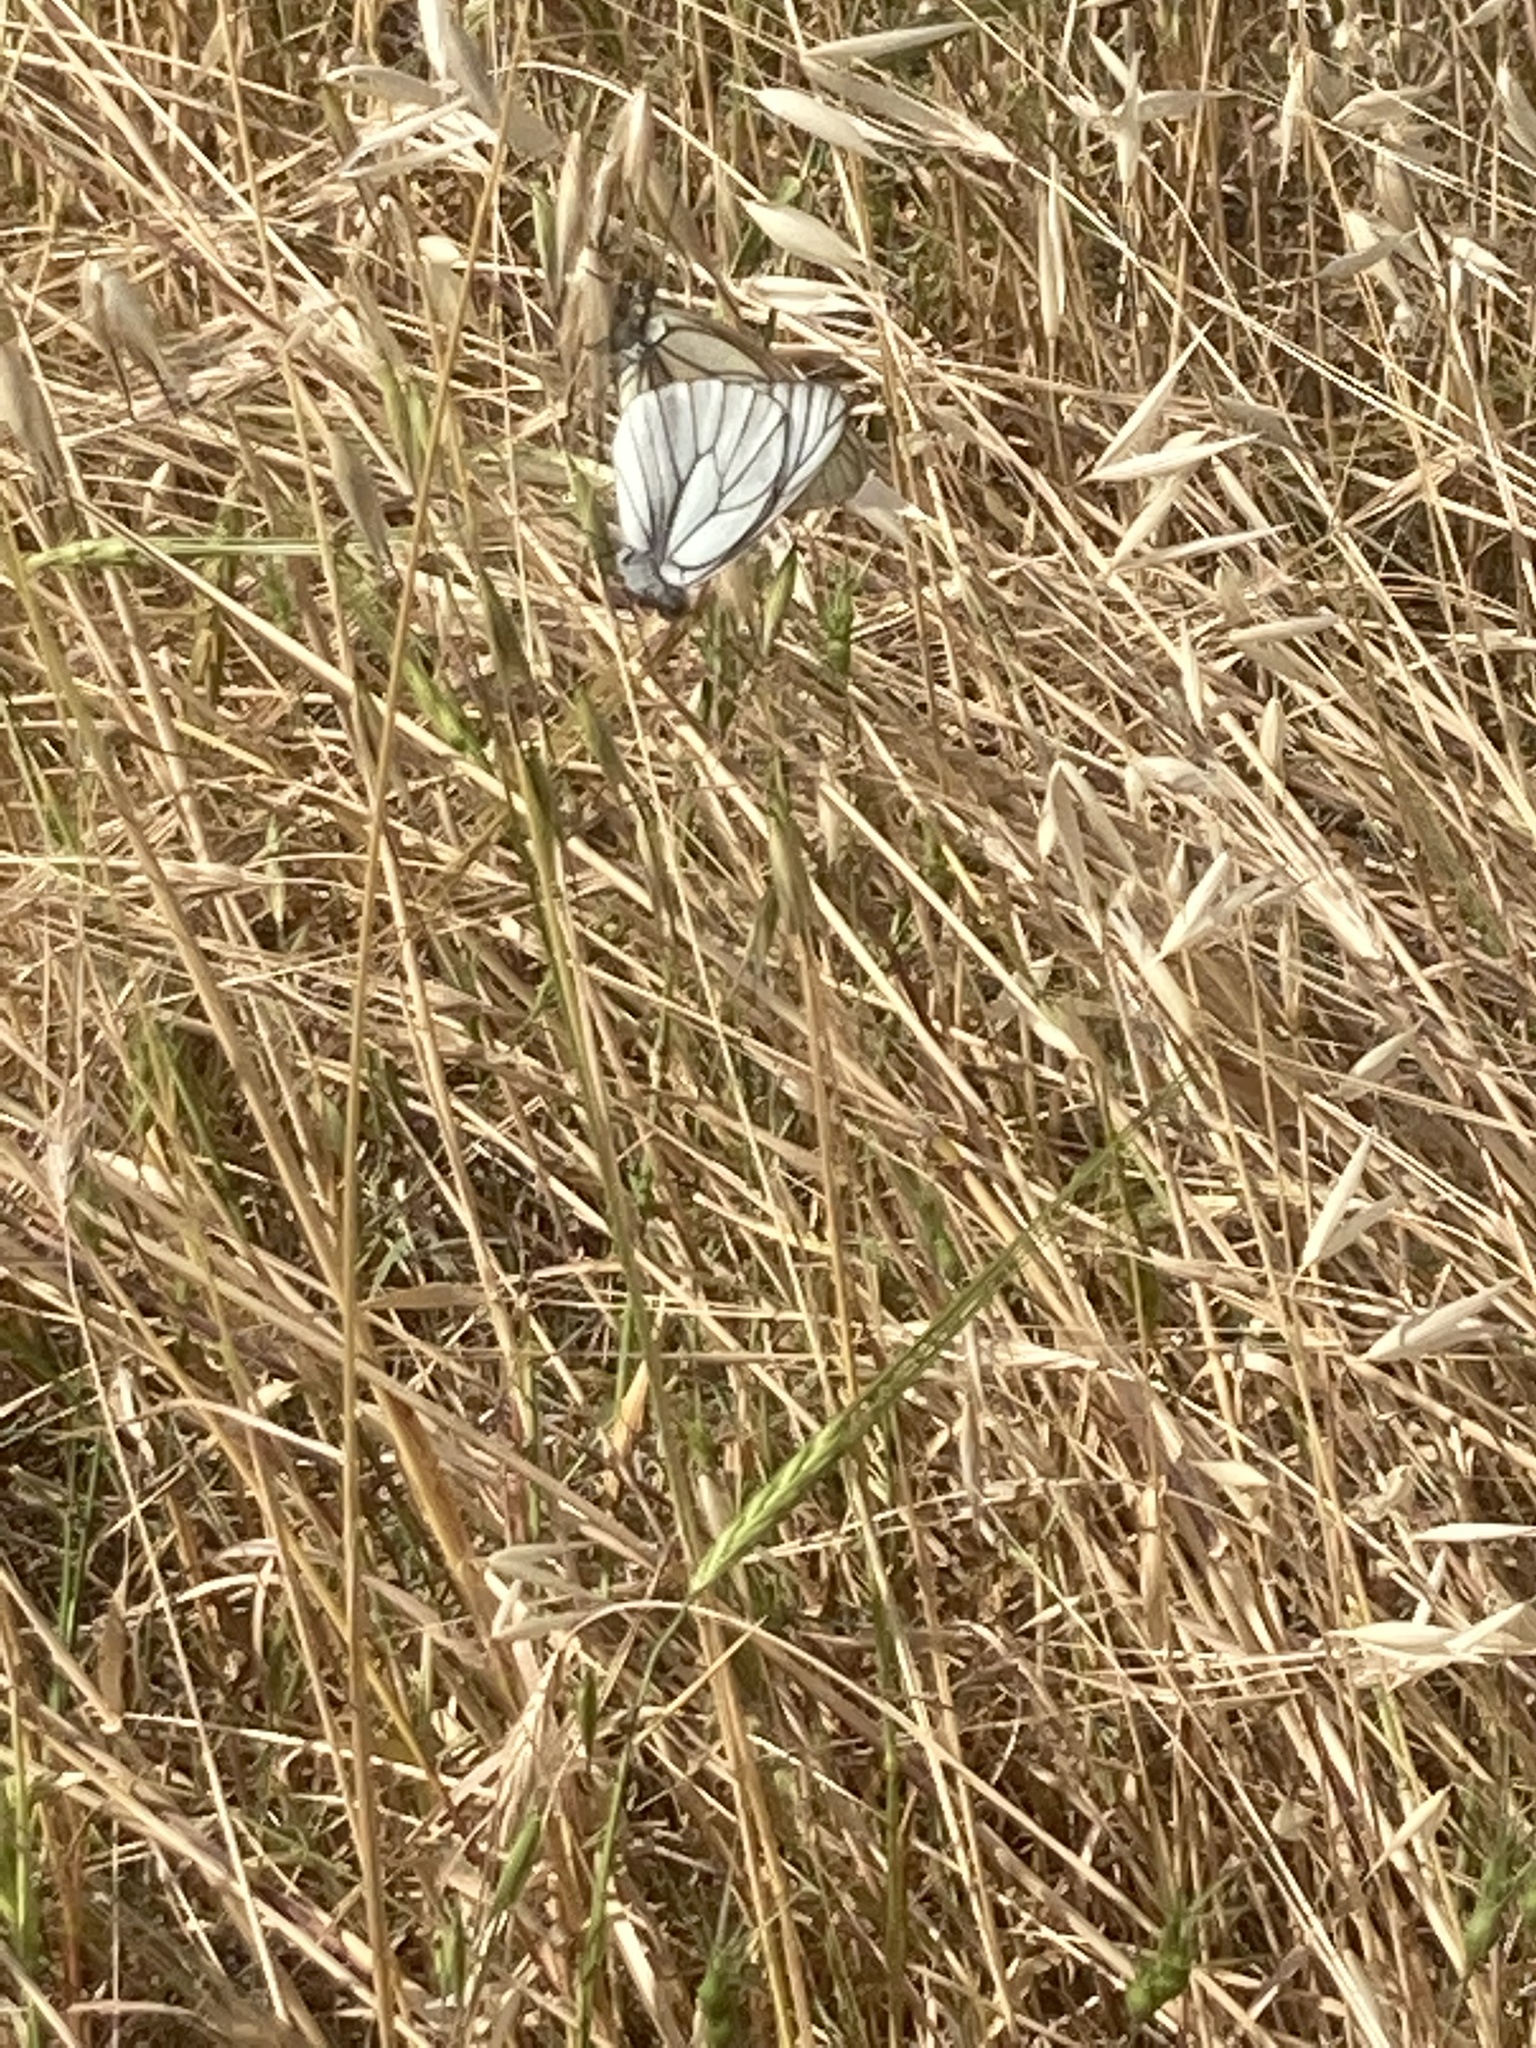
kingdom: Animalia
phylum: Arthropoda
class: Insecta
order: Lepidoptera
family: Pieridae
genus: Aporia
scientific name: Aporia crataegi
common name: Black-veined white
